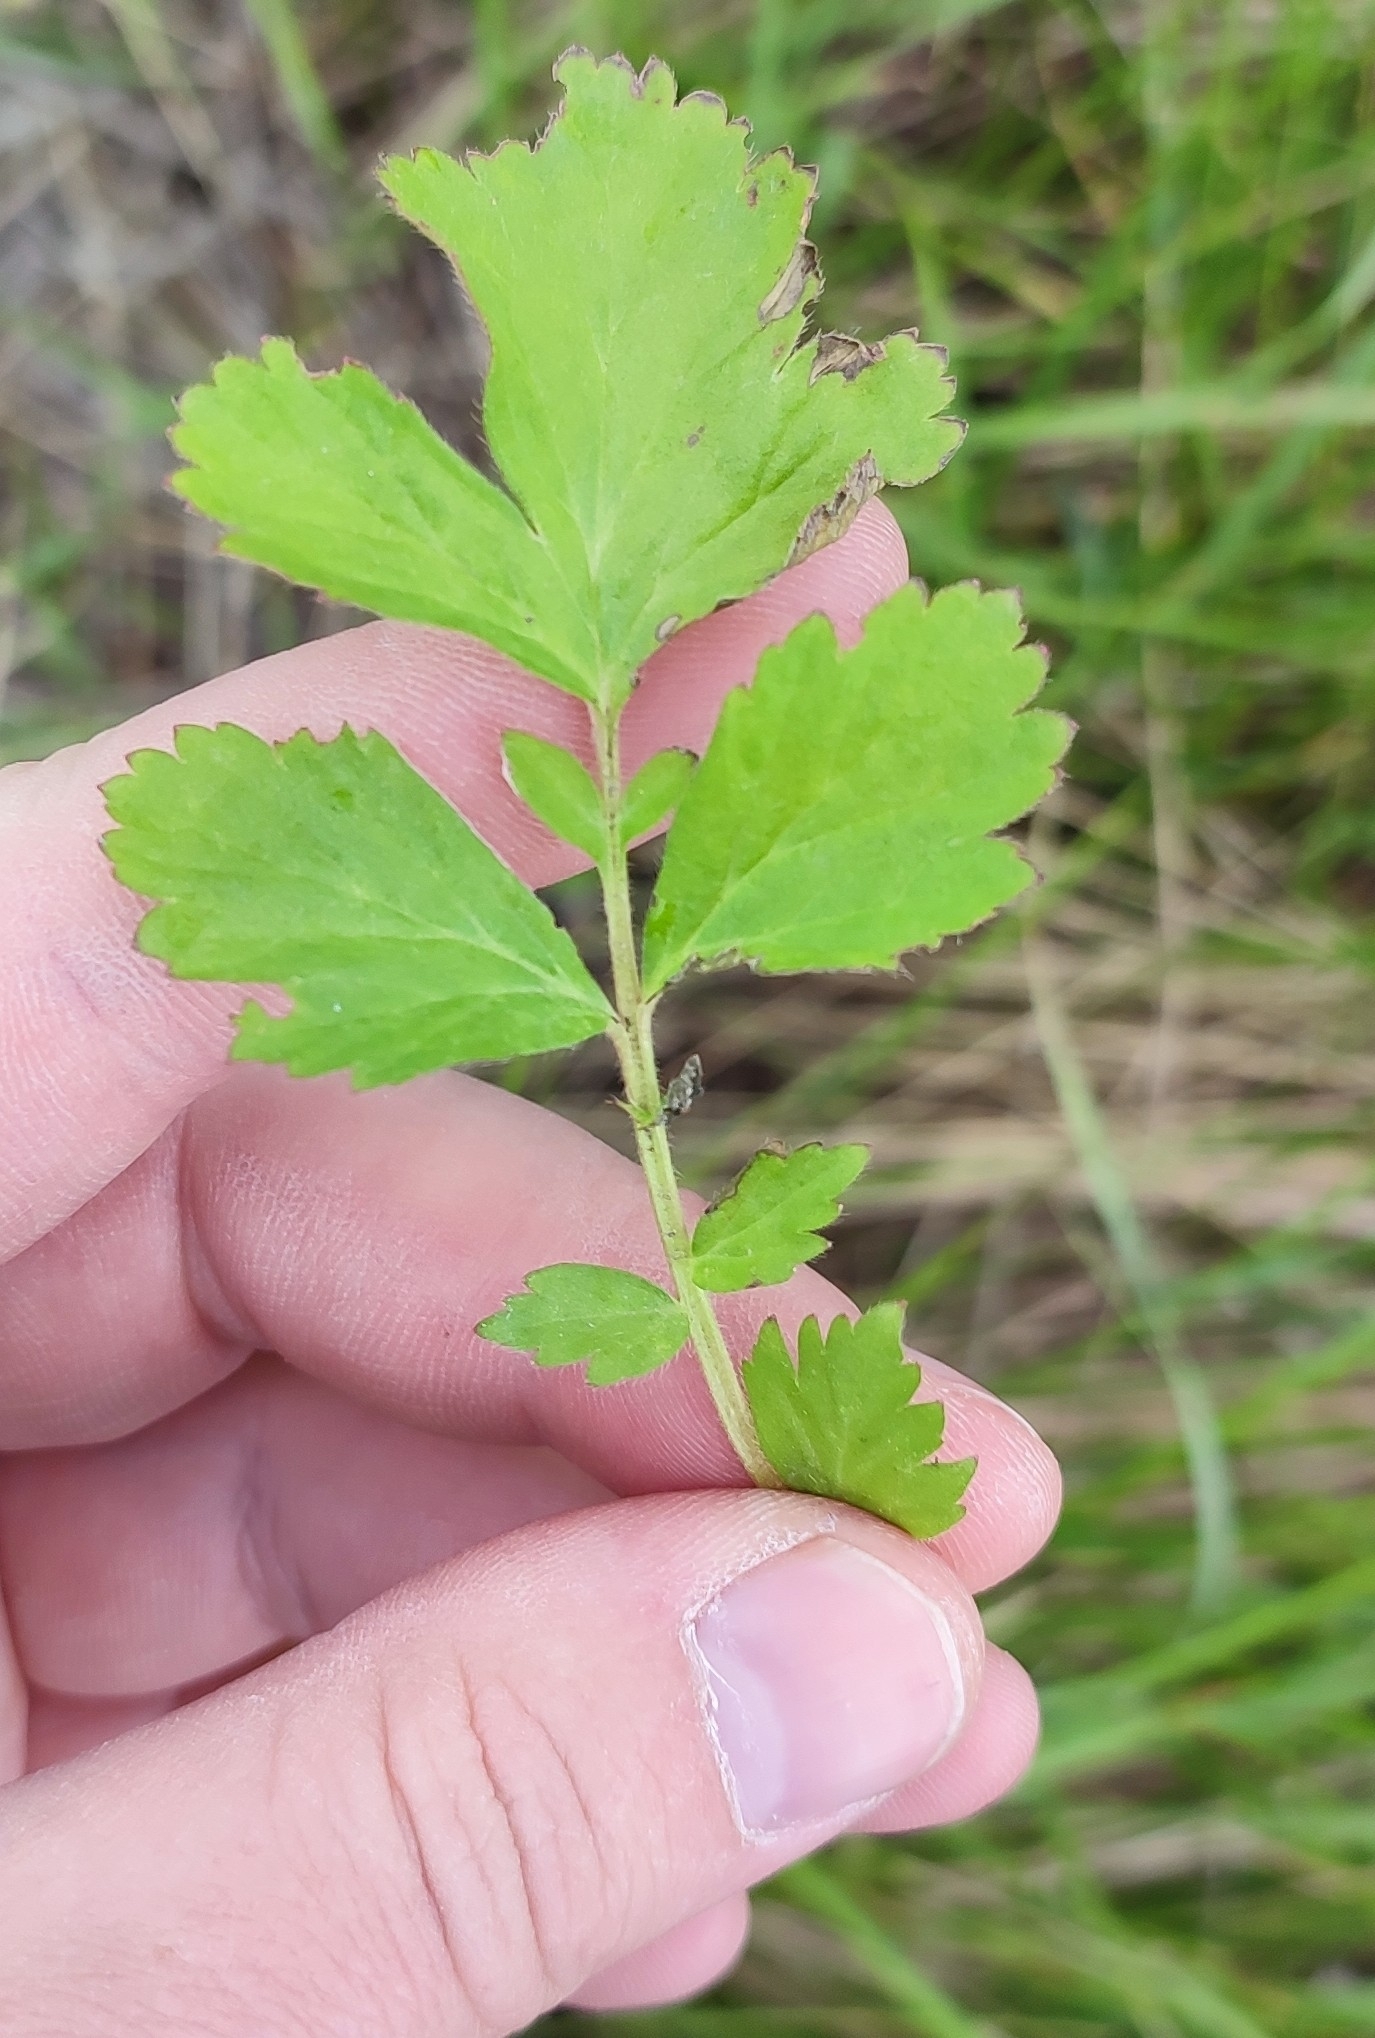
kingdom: Plantae
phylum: Tracheophyta
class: Magnoliopsida
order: Rosales
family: Rosaceae
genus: Geum
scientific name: Geum aleppicum
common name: Yellow avens
